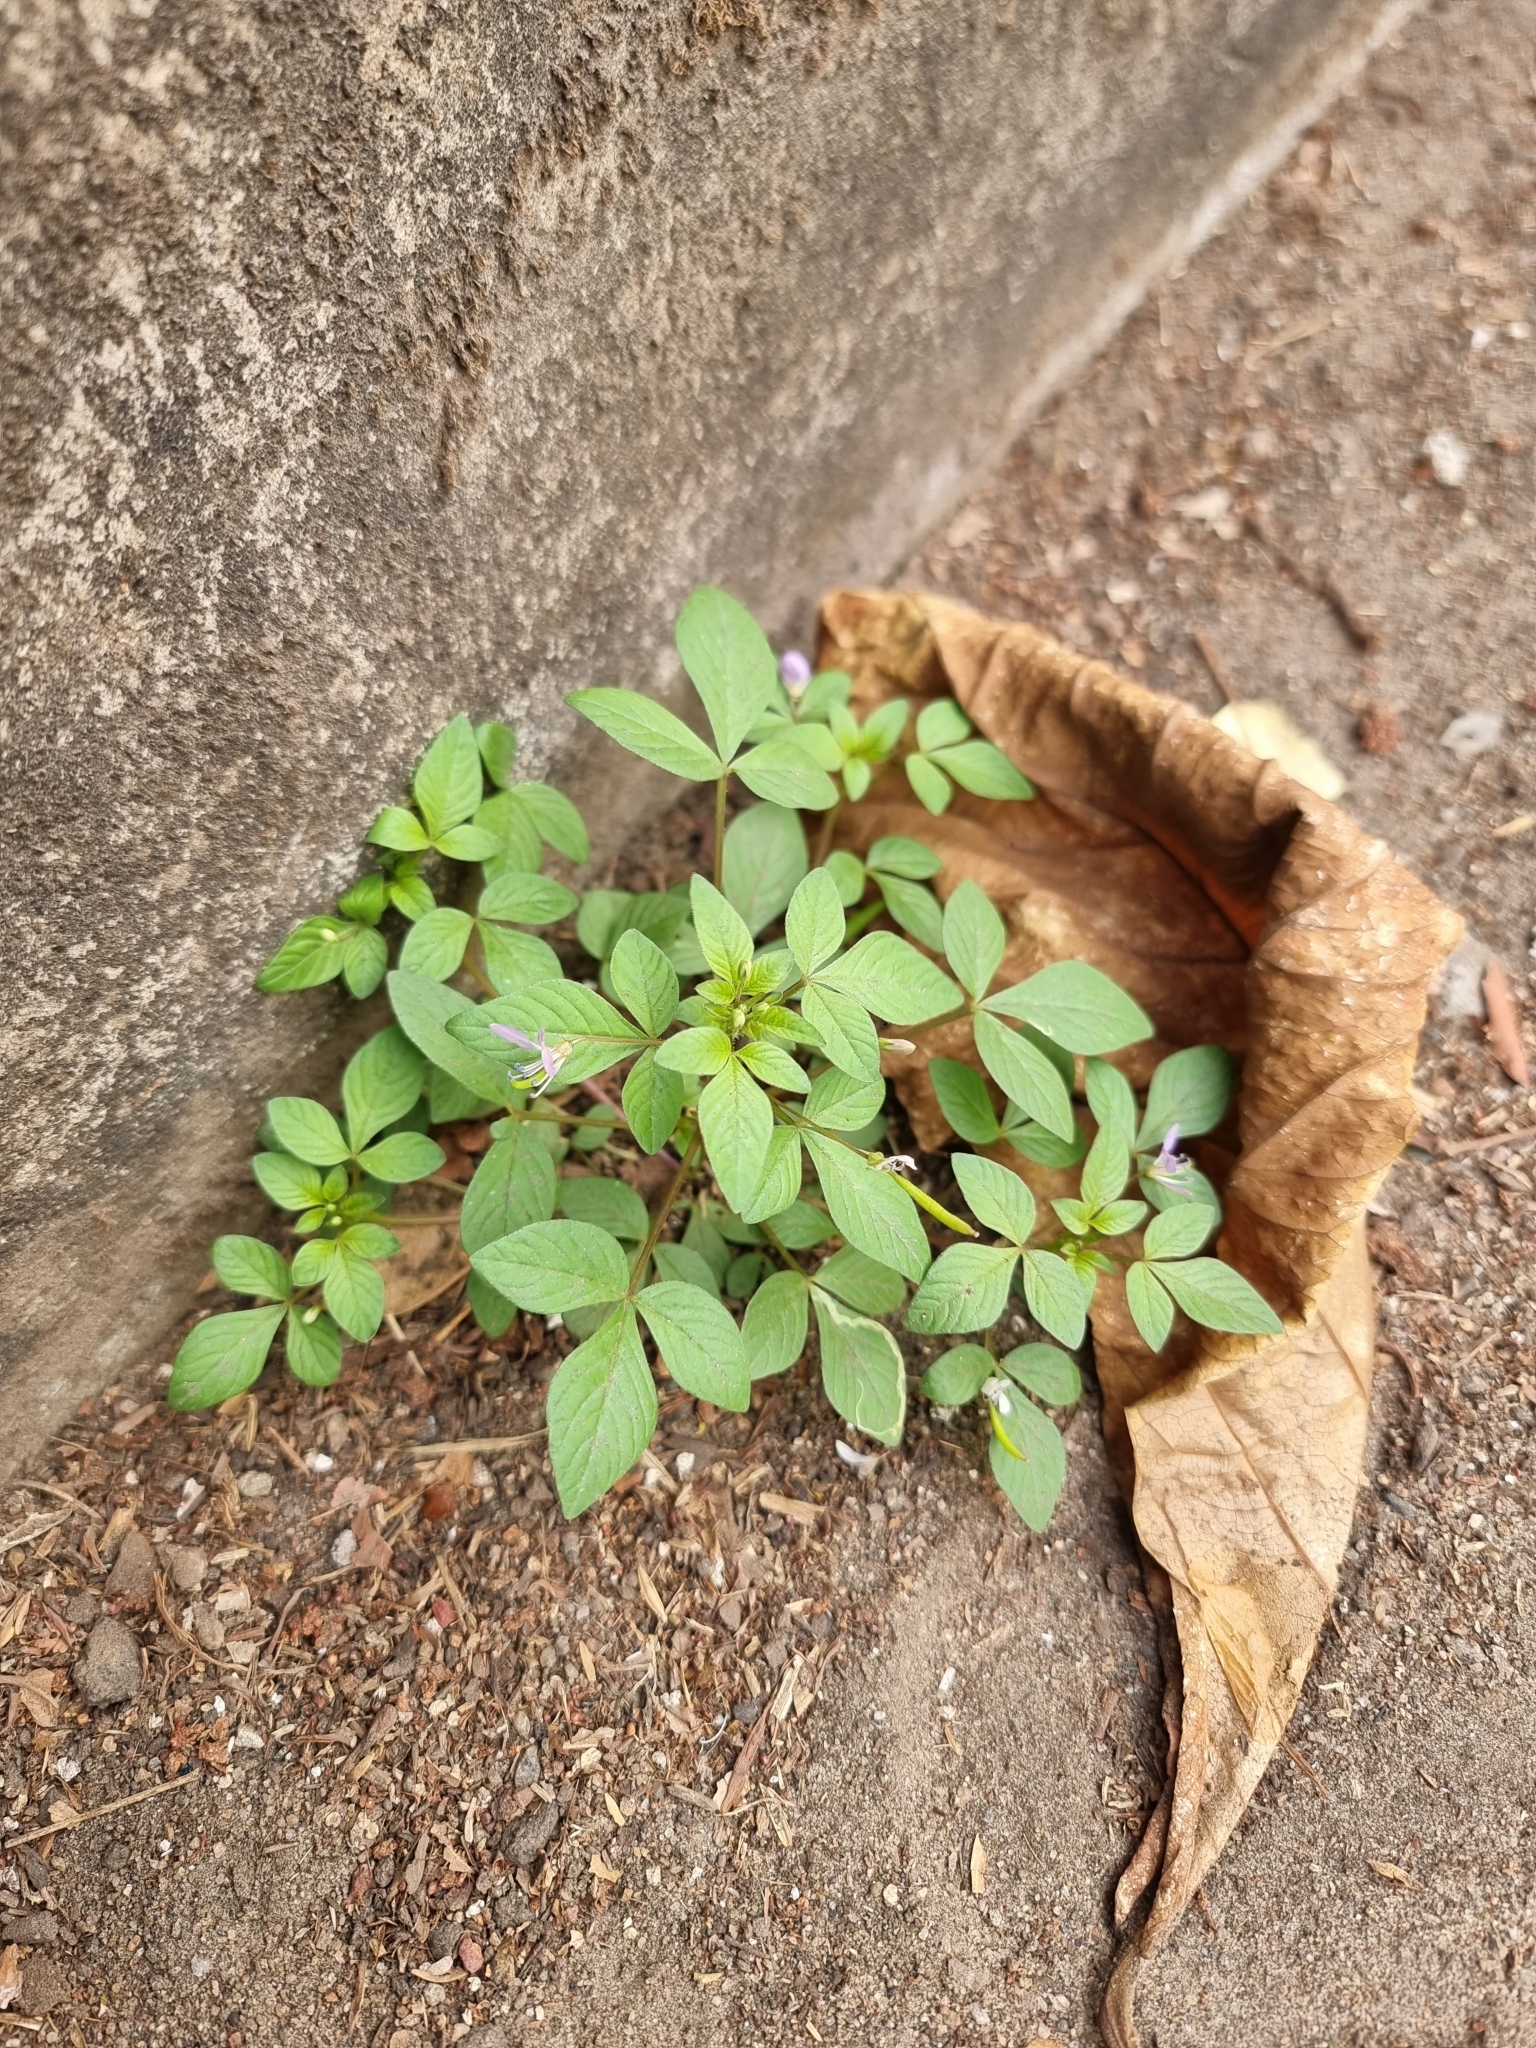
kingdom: Plantae
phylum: Tracheophyta
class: Magnoliopsida
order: Brassicales
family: Cleomaceae
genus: Sieruela
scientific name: Sieruela rutidosperma
